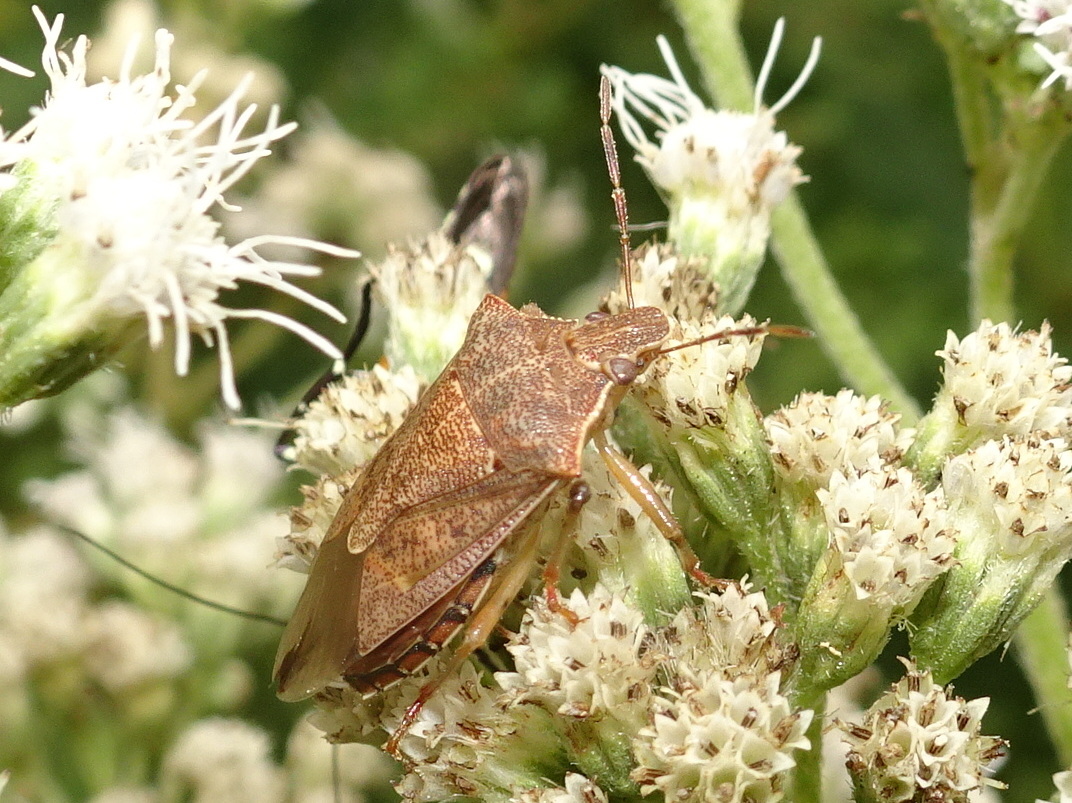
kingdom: Animalia
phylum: Arthropoda
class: Insecta
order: Hemiptera
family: Pentatomidae
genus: Podisus
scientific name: Podisus maculiventris
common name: Spined soldier bug
